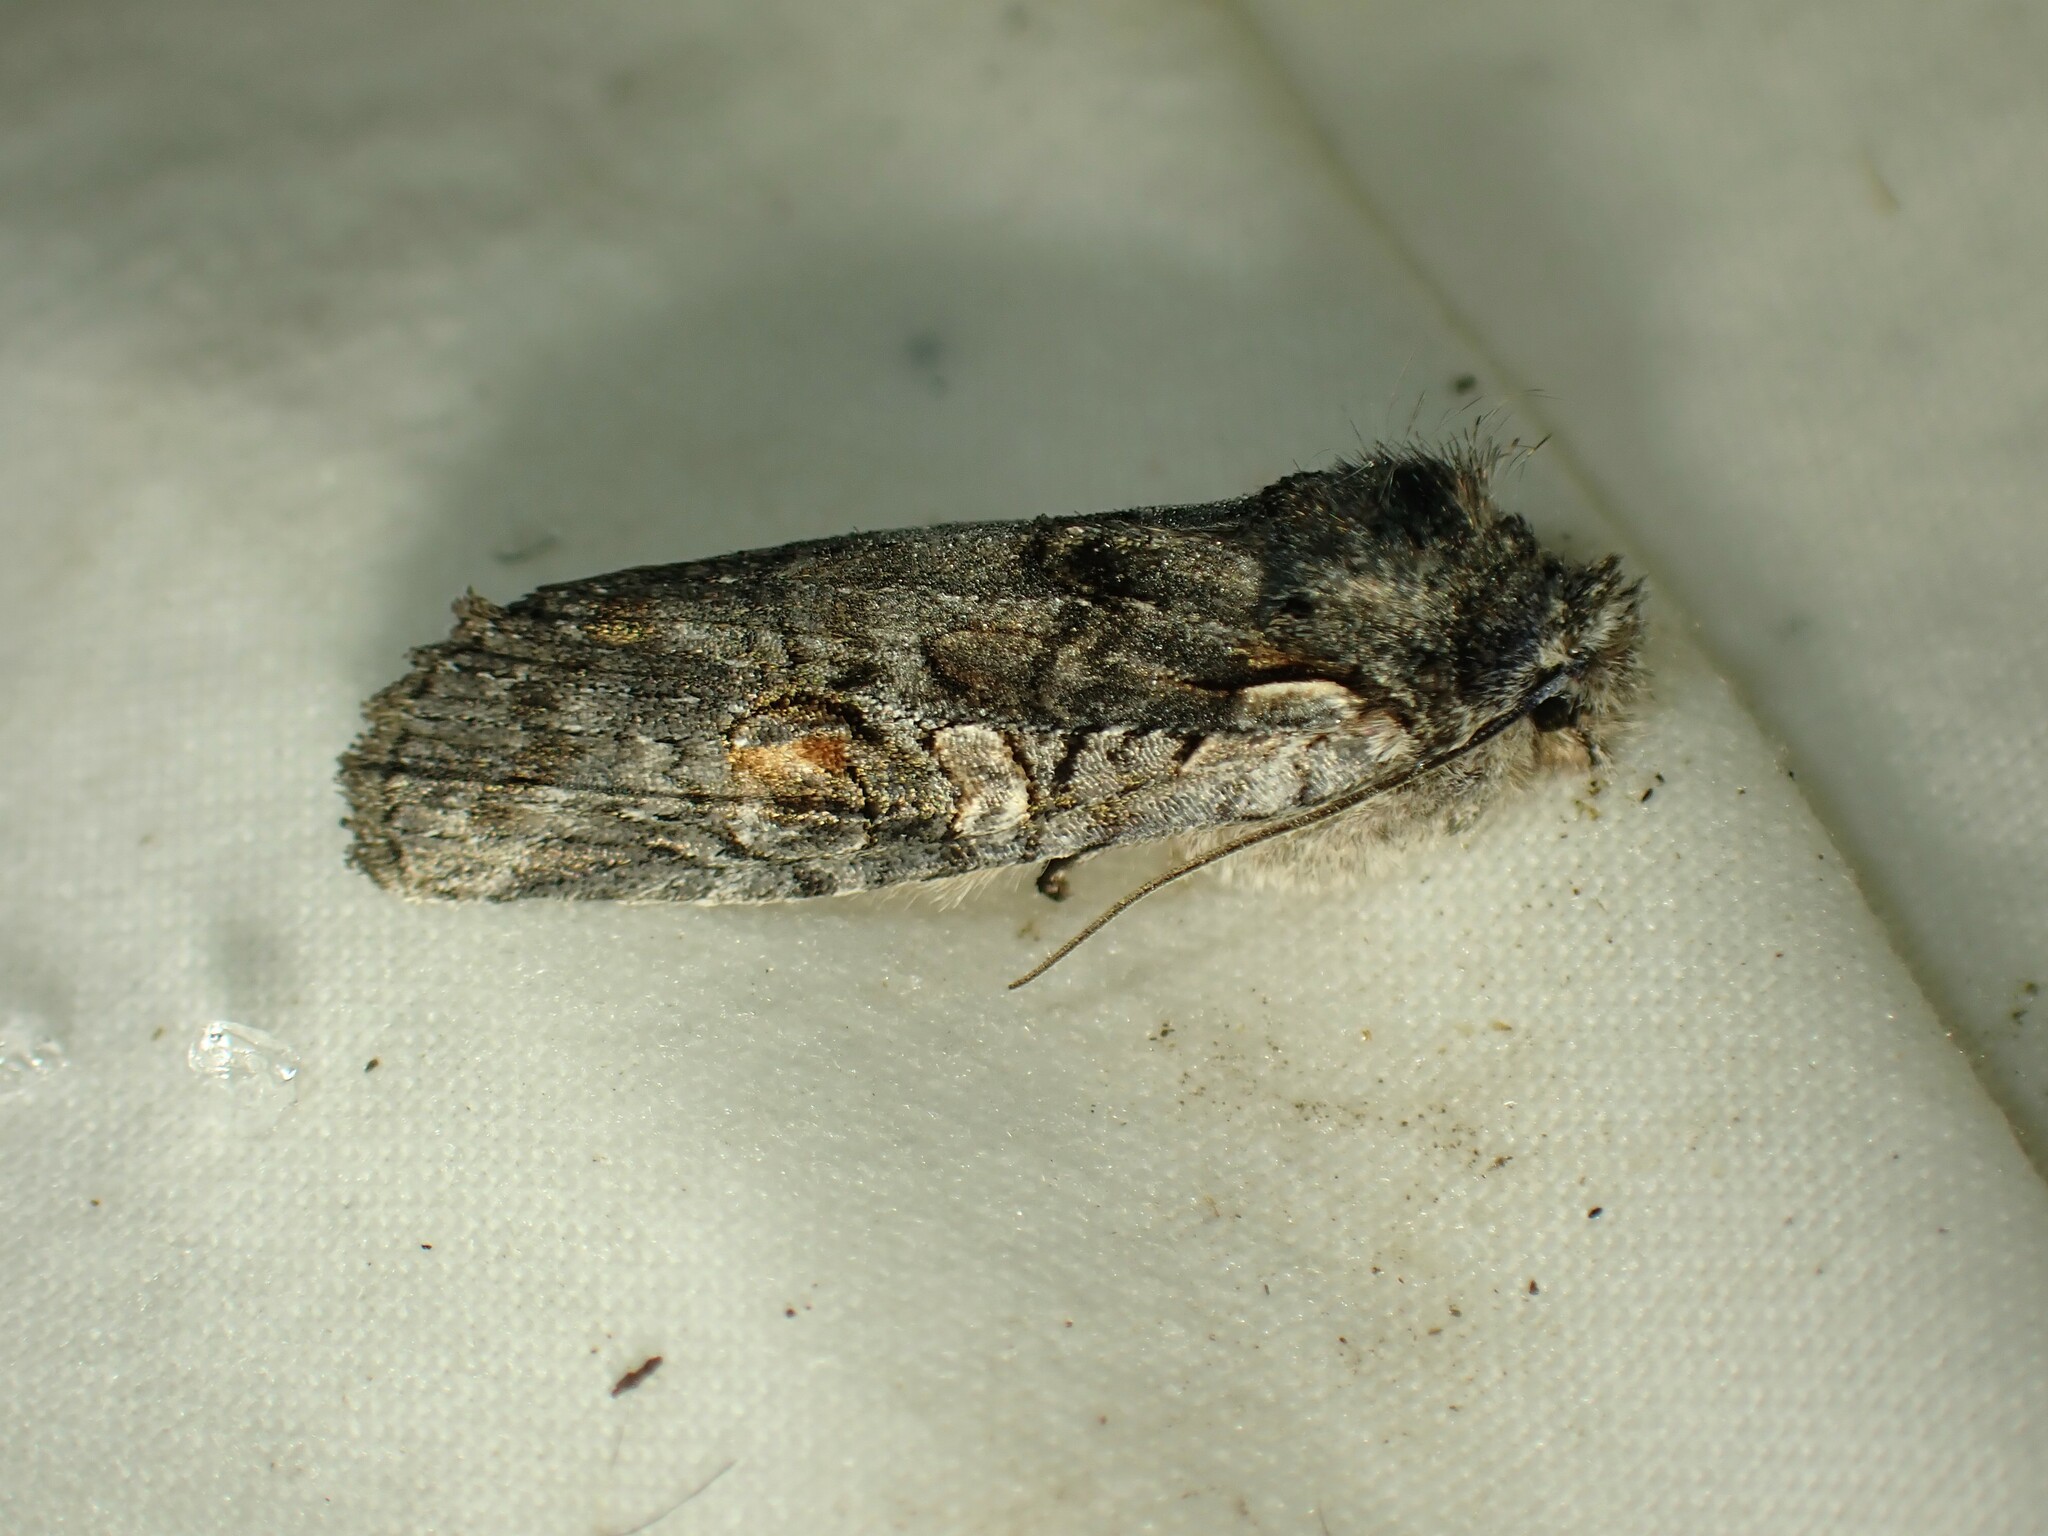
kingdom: Animalia
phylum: Arthropoda
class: Insecta
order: Lepidoptera
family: Noctuidae
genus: Lithophane
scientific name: Lithophane baileyi
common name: Bailey's pinion moth
